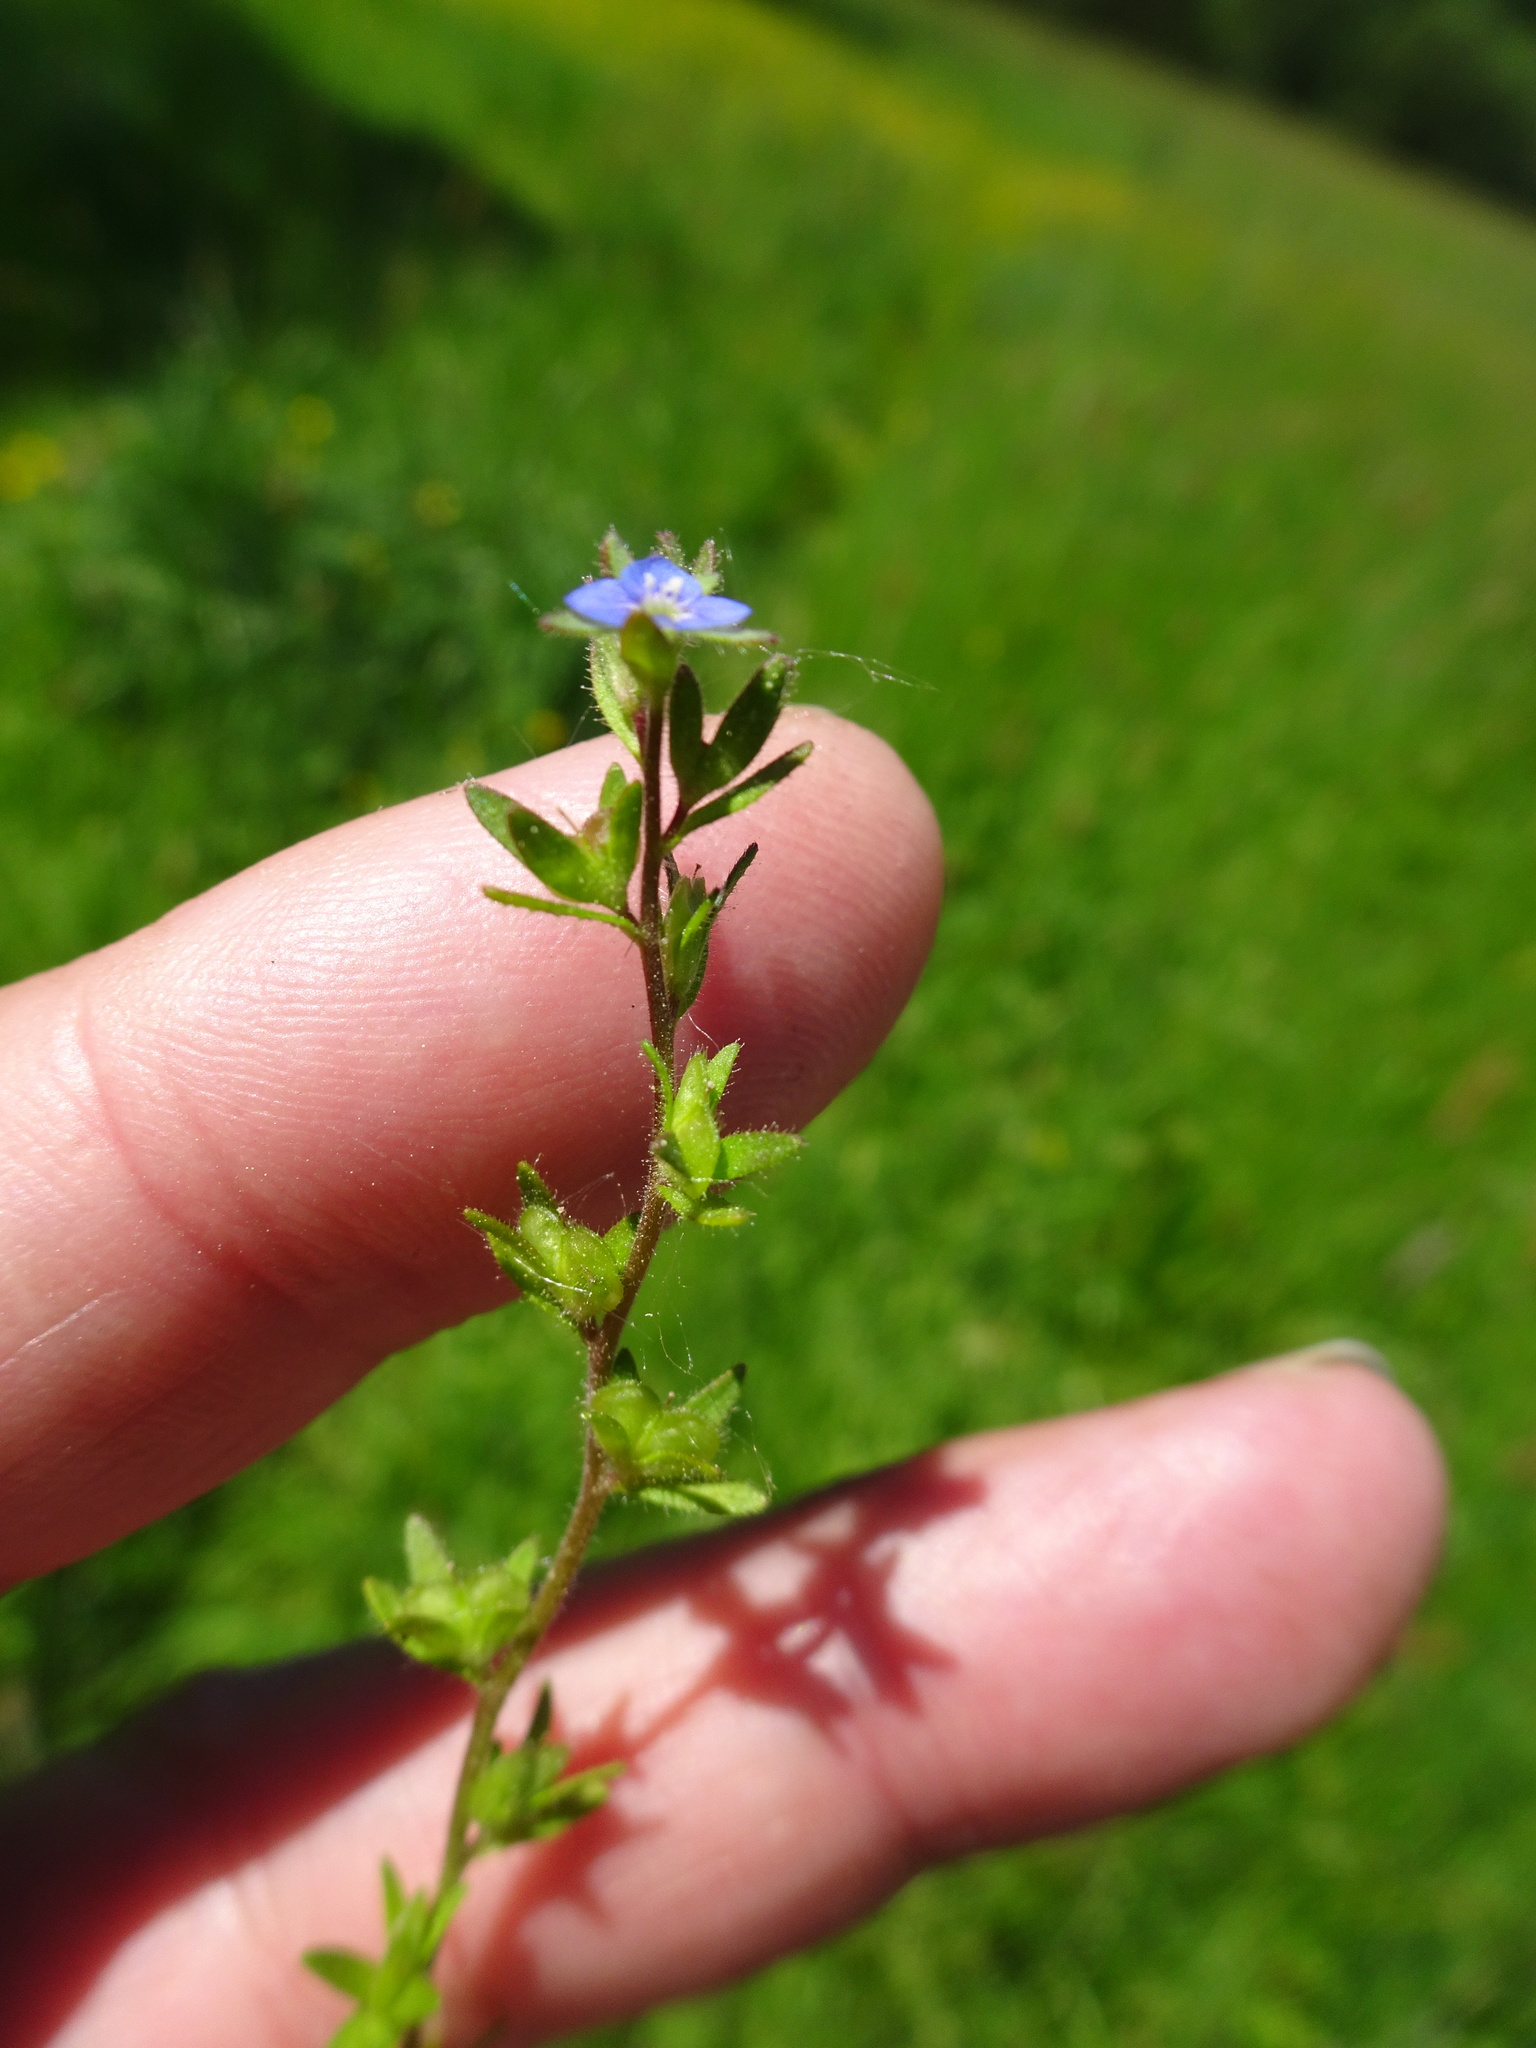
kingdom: Plantae
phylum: Tracheophyta
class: Magnoliopsida
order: Lamiales
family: Plantaginaceae
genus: Veronica
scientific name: Veronica arvensis
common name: Corn speedwell
